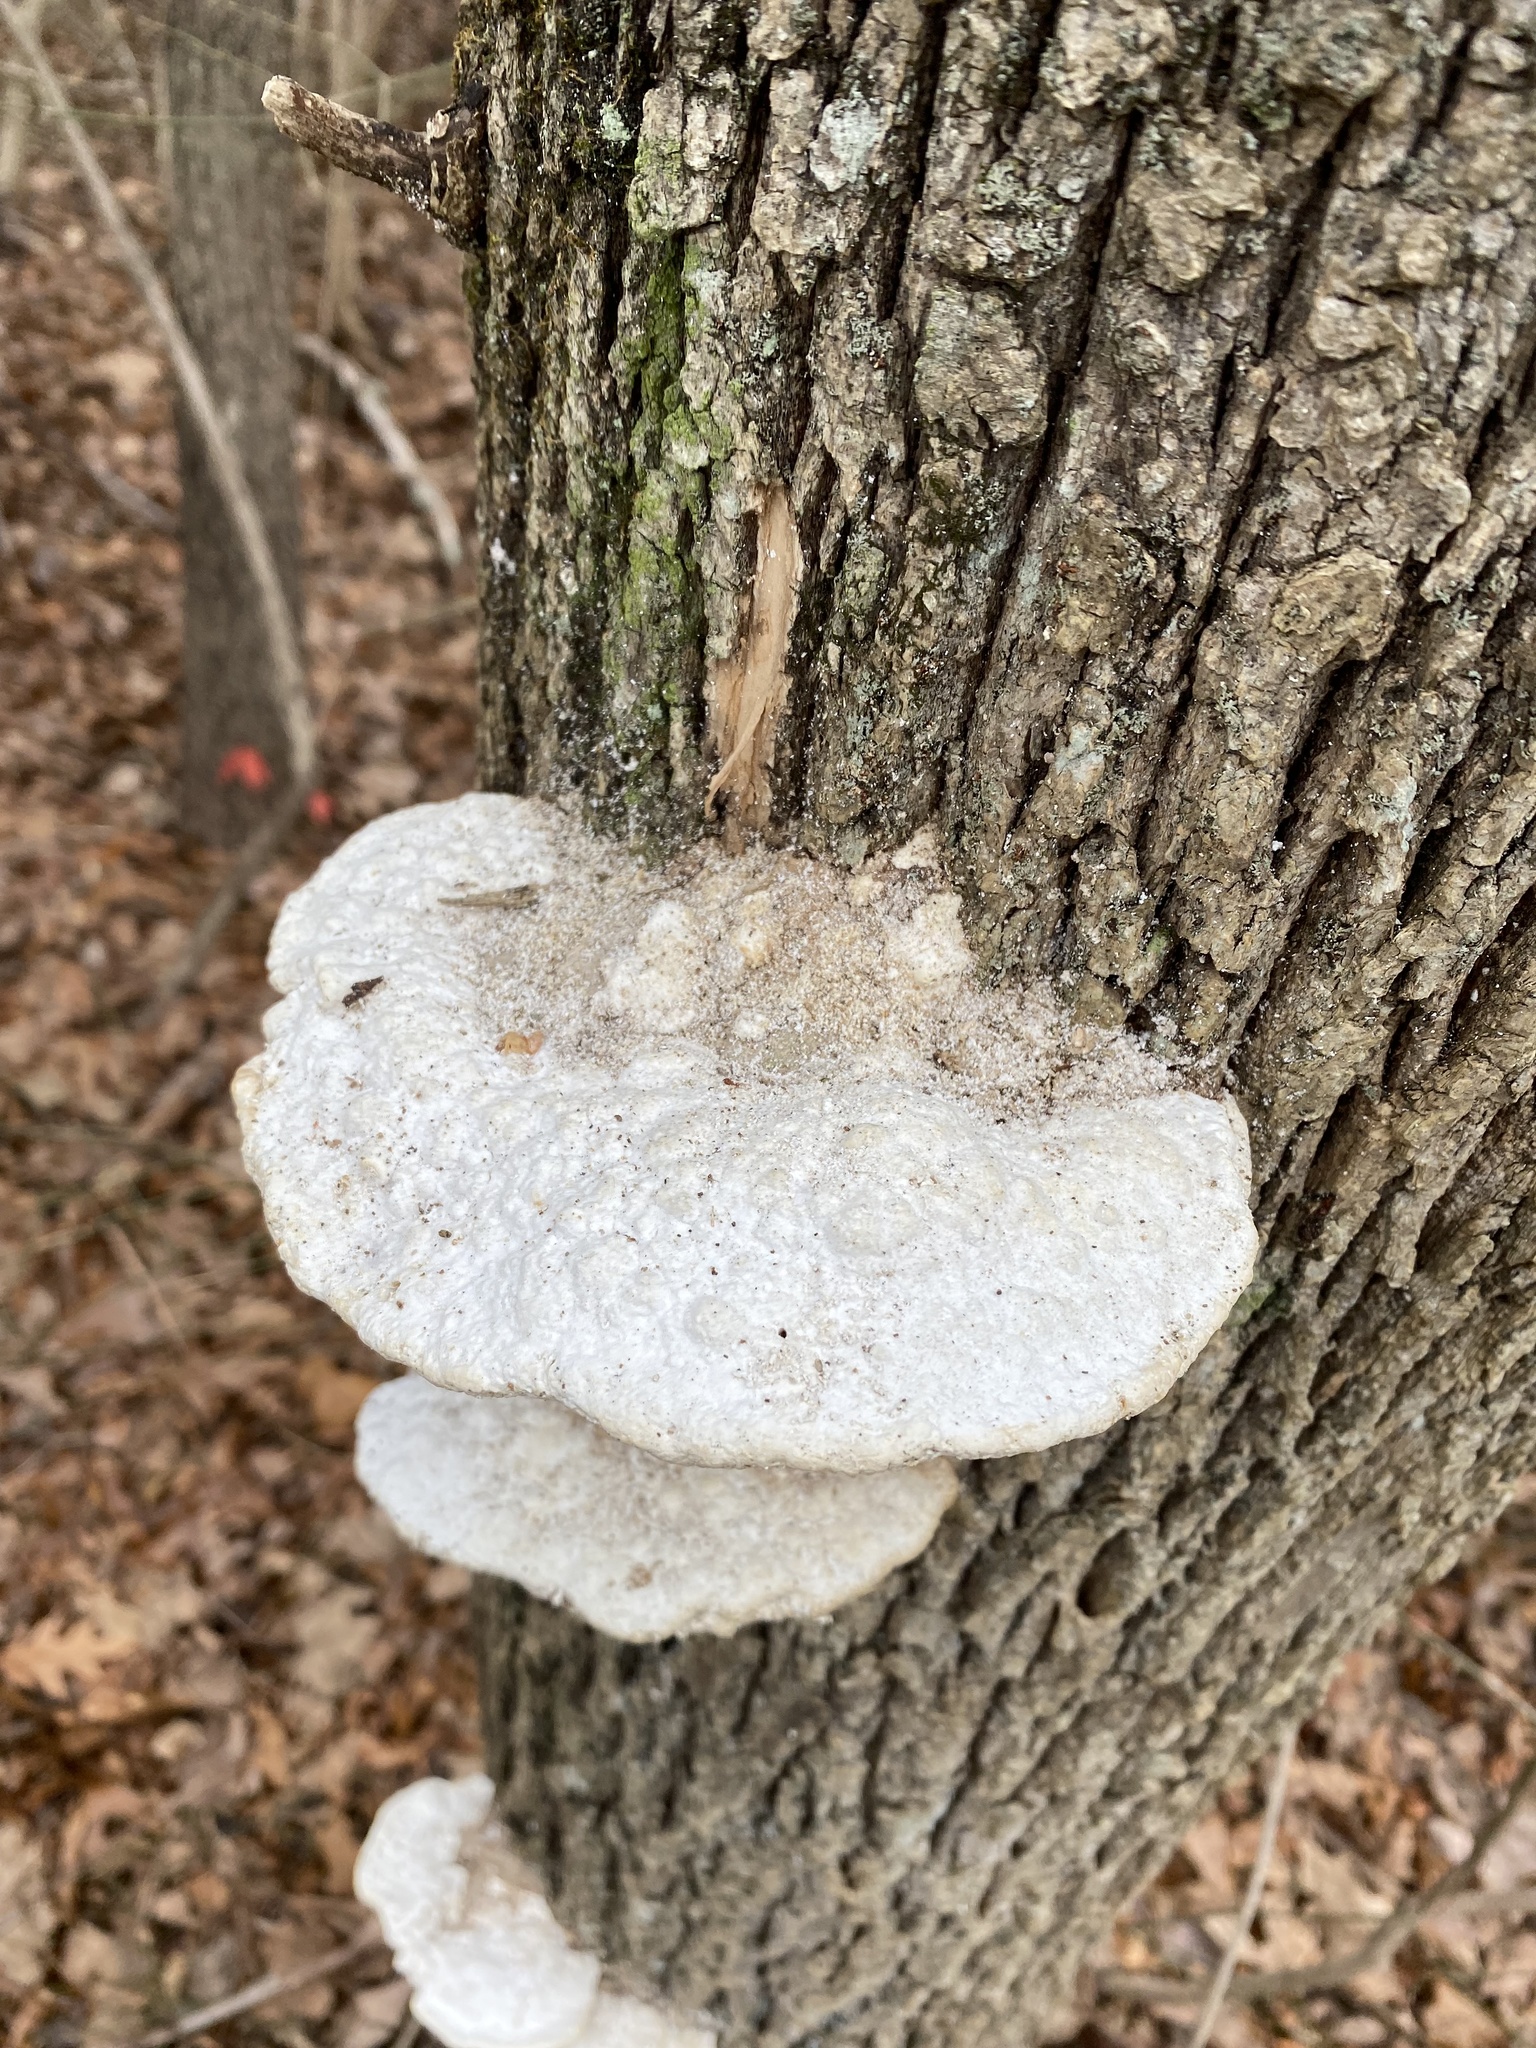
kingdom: Fungi
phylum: Basidiomycota
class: Agaricomycetes
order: Polyporales
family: Polyporaceae
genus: Trametes
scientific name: Trametes gibbosa
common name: Lumpy bracket
